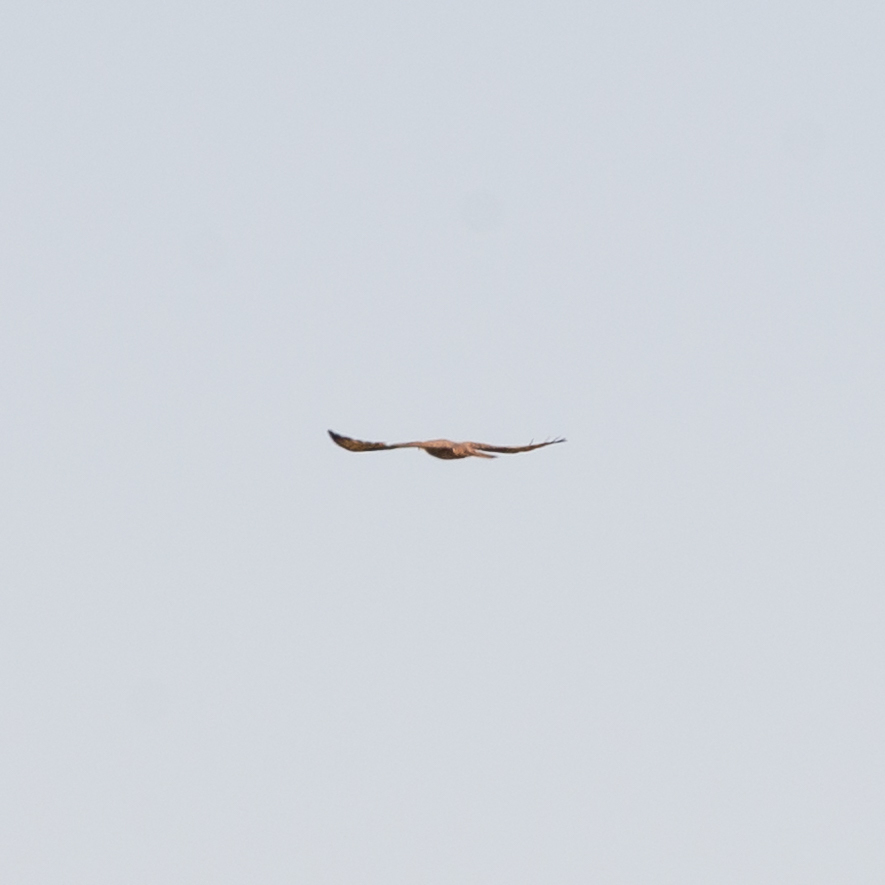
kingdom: Animalia
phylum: Chordata
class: Aves
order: Accipitriformes
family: Accipitridae
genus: Pernis
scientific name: Pernis apivorus
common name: European honey buzzard
